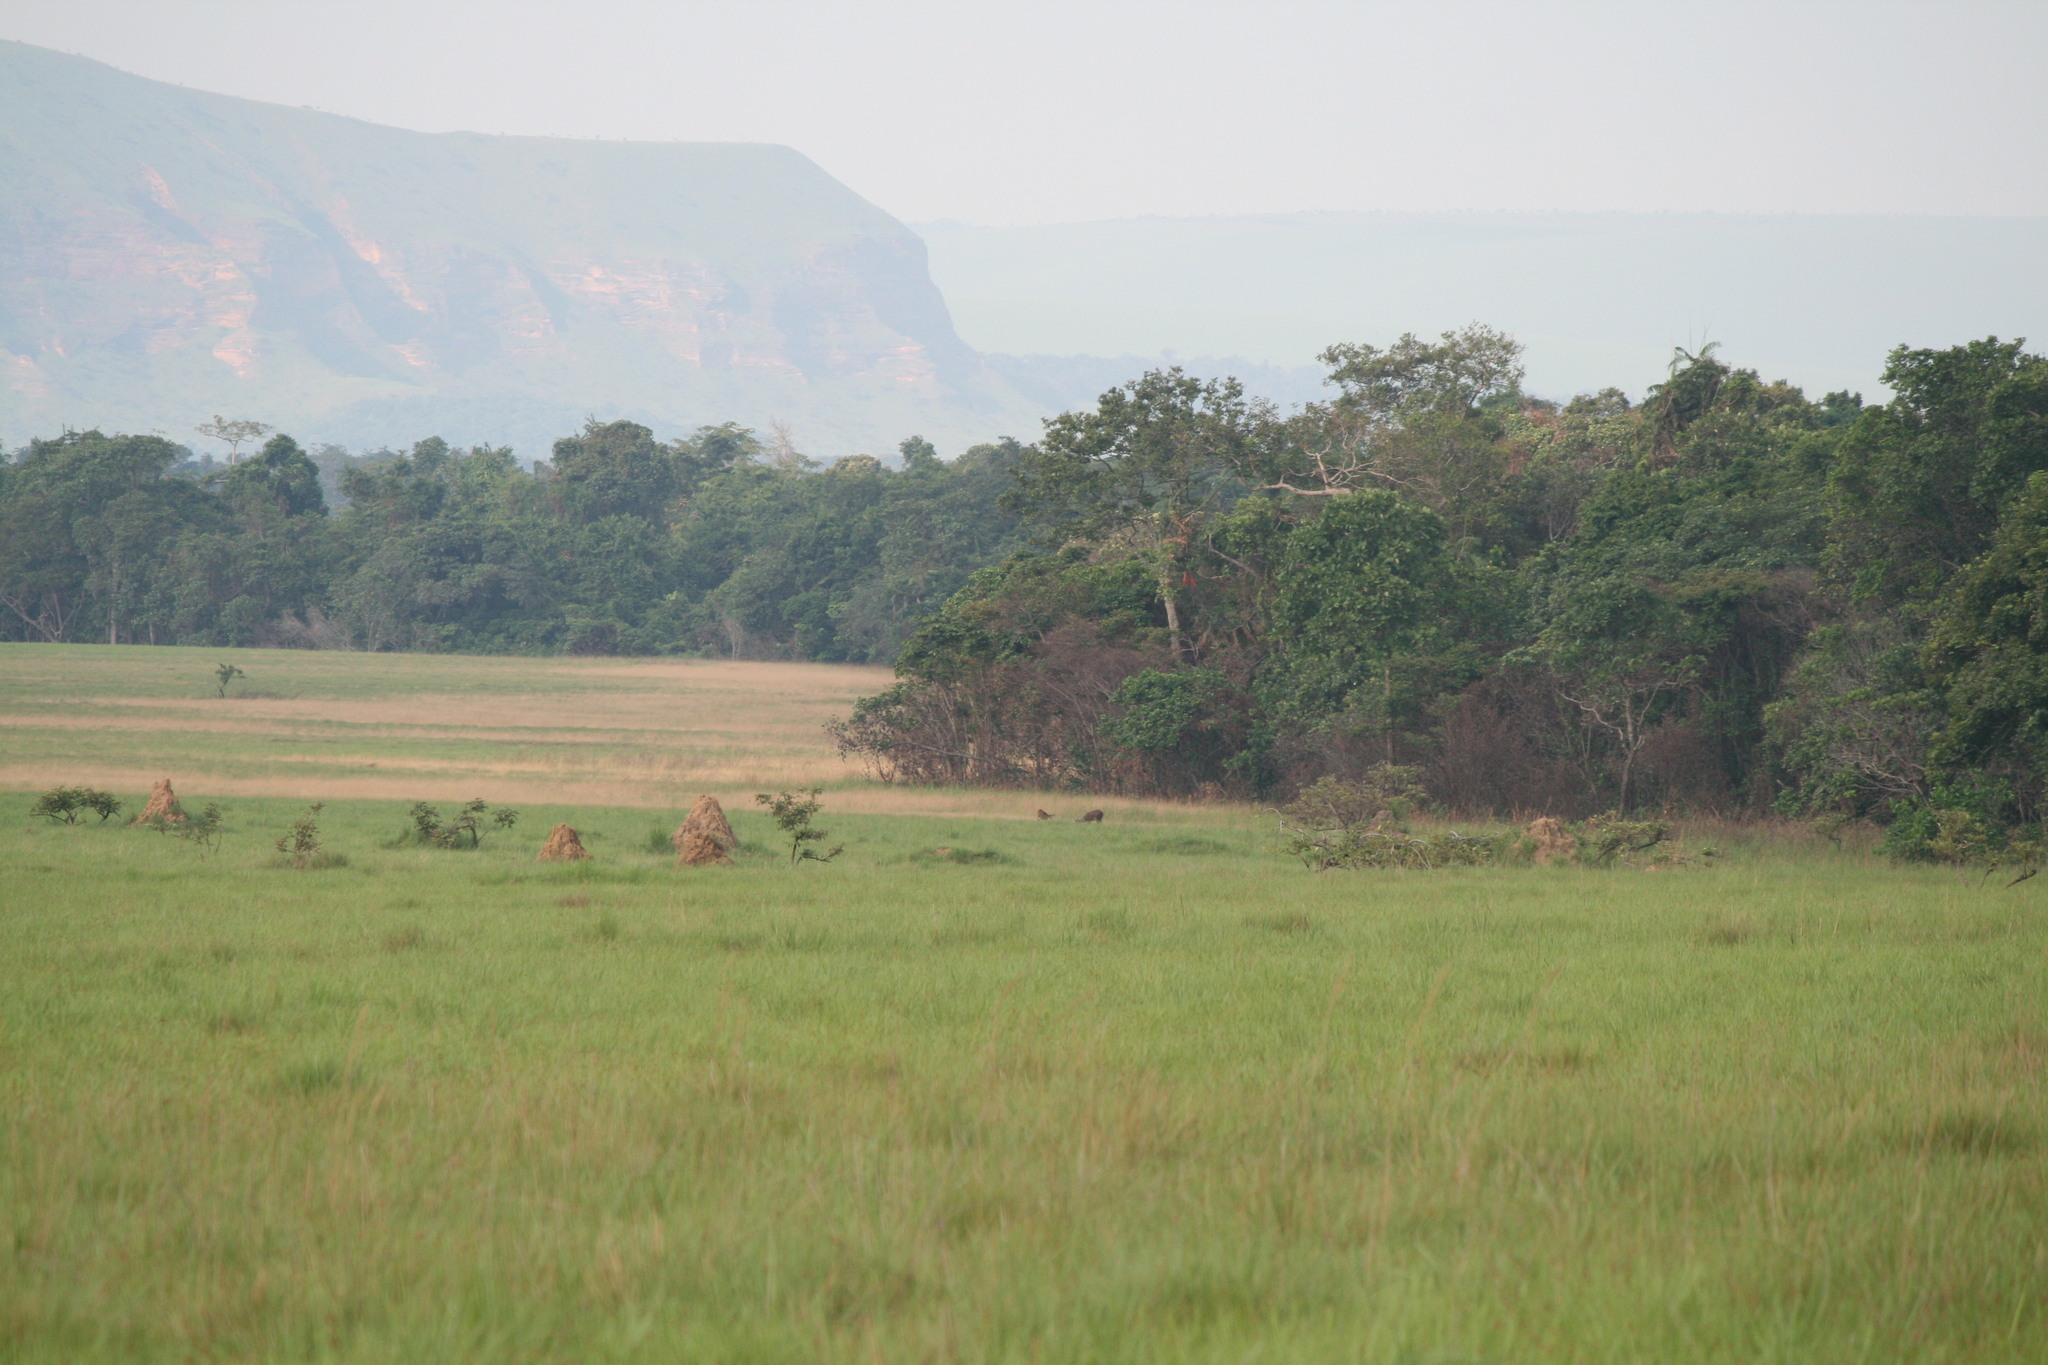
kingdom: Animalia
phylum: Chordata
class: Mammalia
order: Artiodactyla
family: Bovidae
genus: Tragelaphus
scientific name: Tragelaphus spekii
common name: Sitatunga
